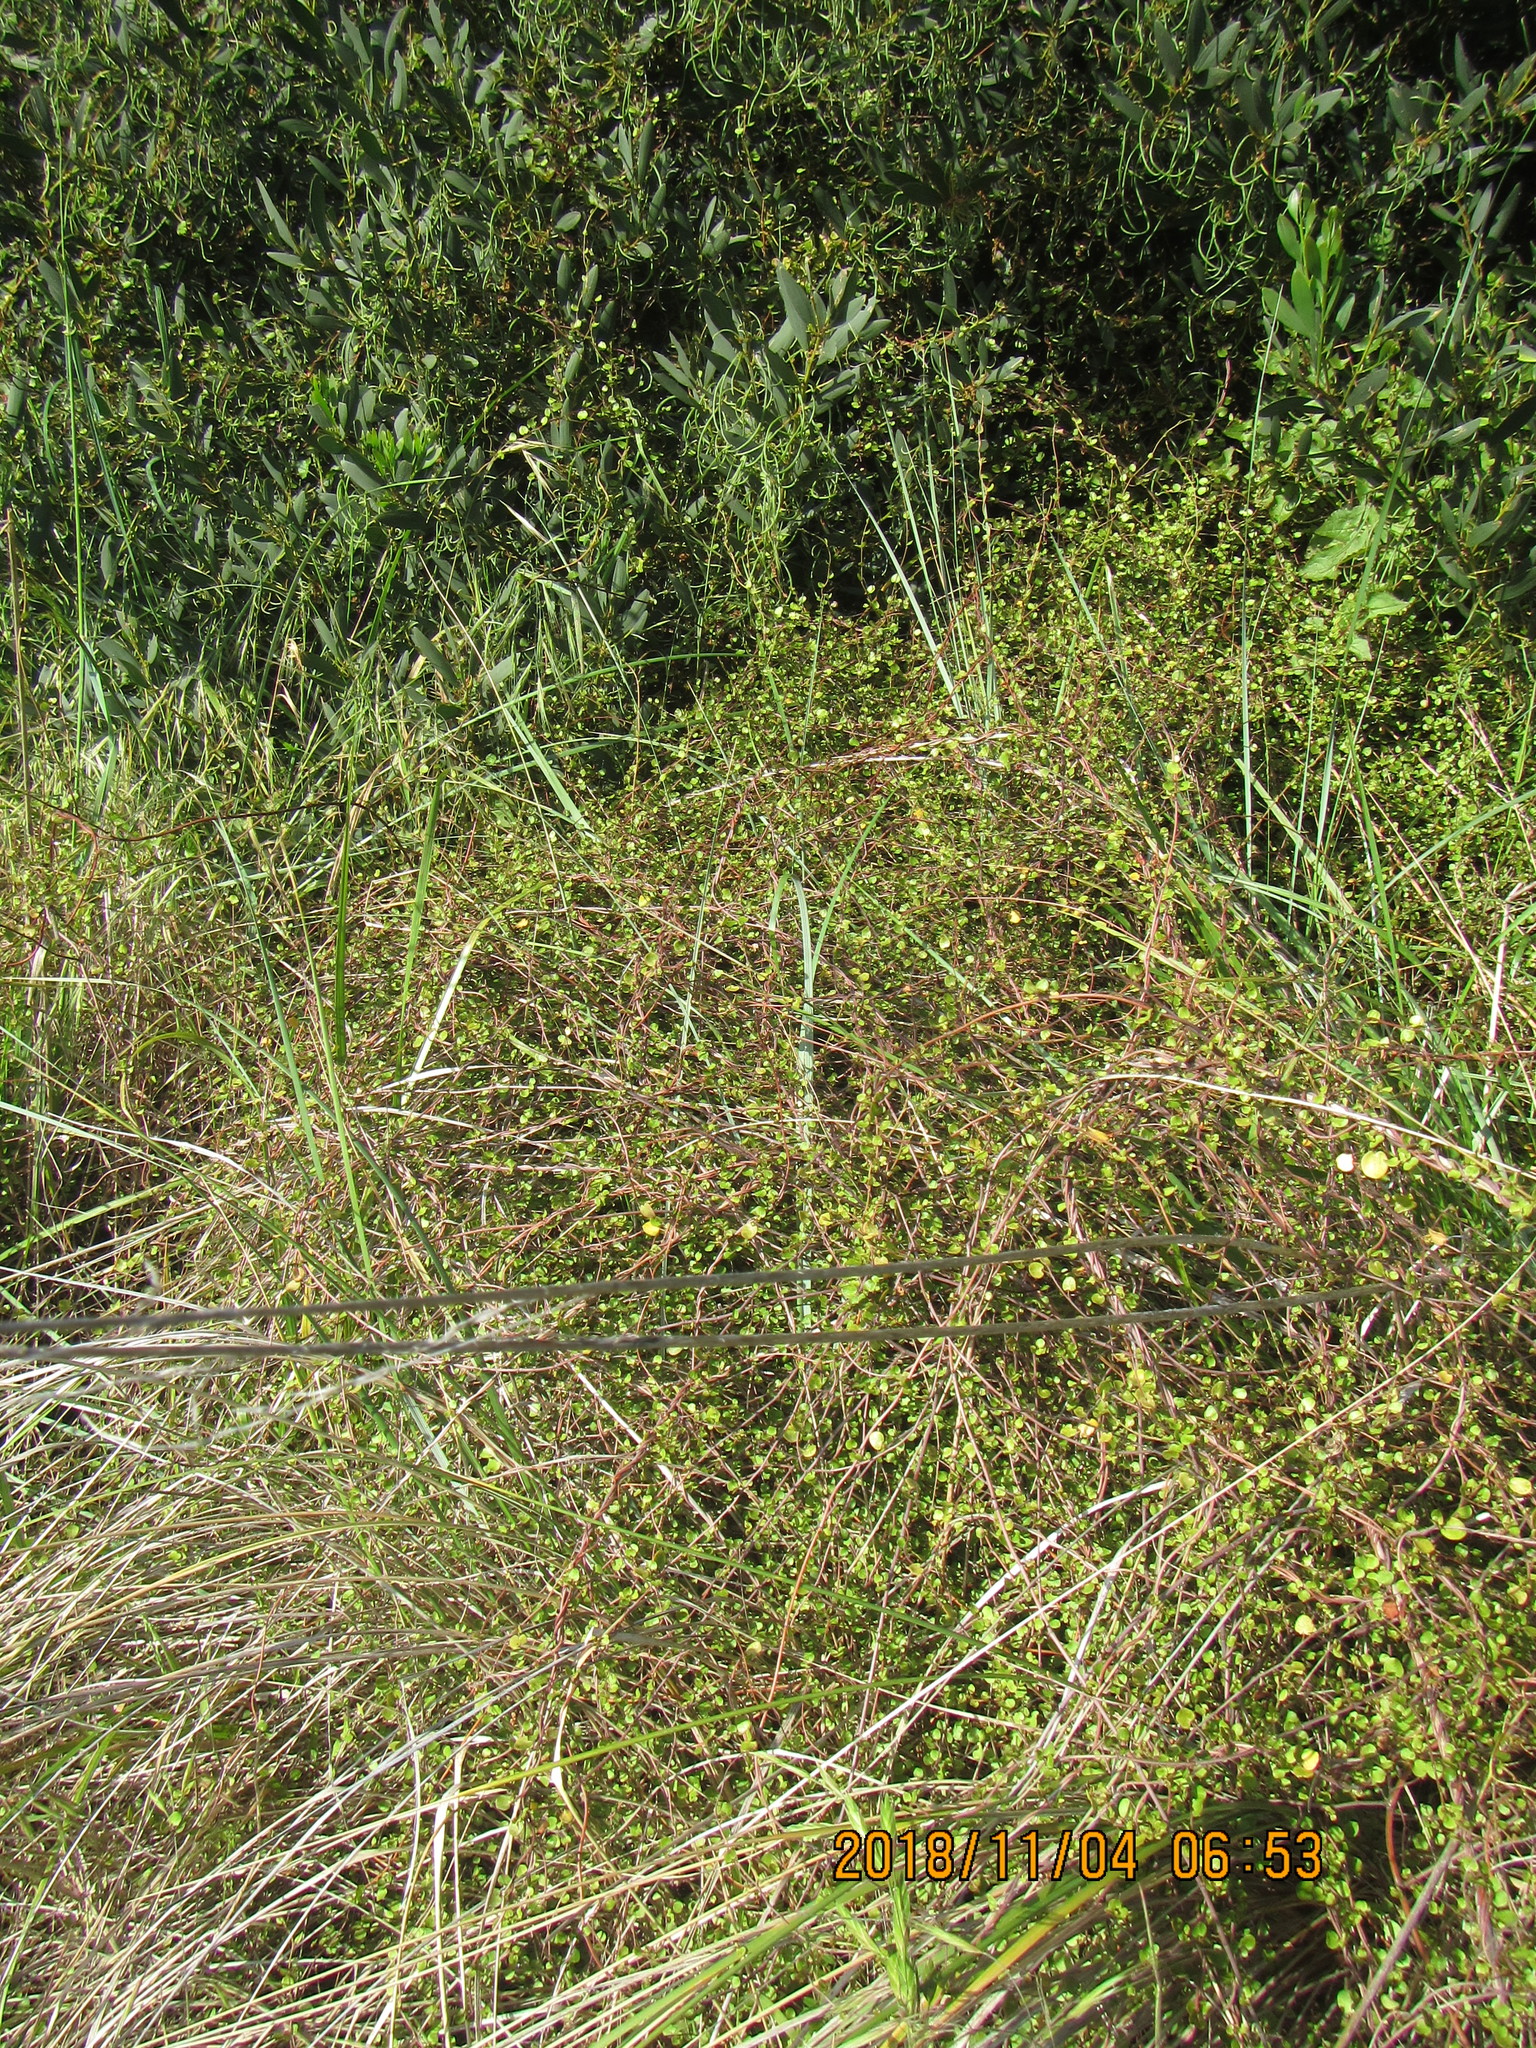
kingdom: Plantae
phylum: Tracheophyta
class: Magnoliopsida
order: Caryophyllales
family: Polygonaceae
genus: Muehlenbeckia
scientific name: Muehlenbeckia complexa
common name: Wireplant
